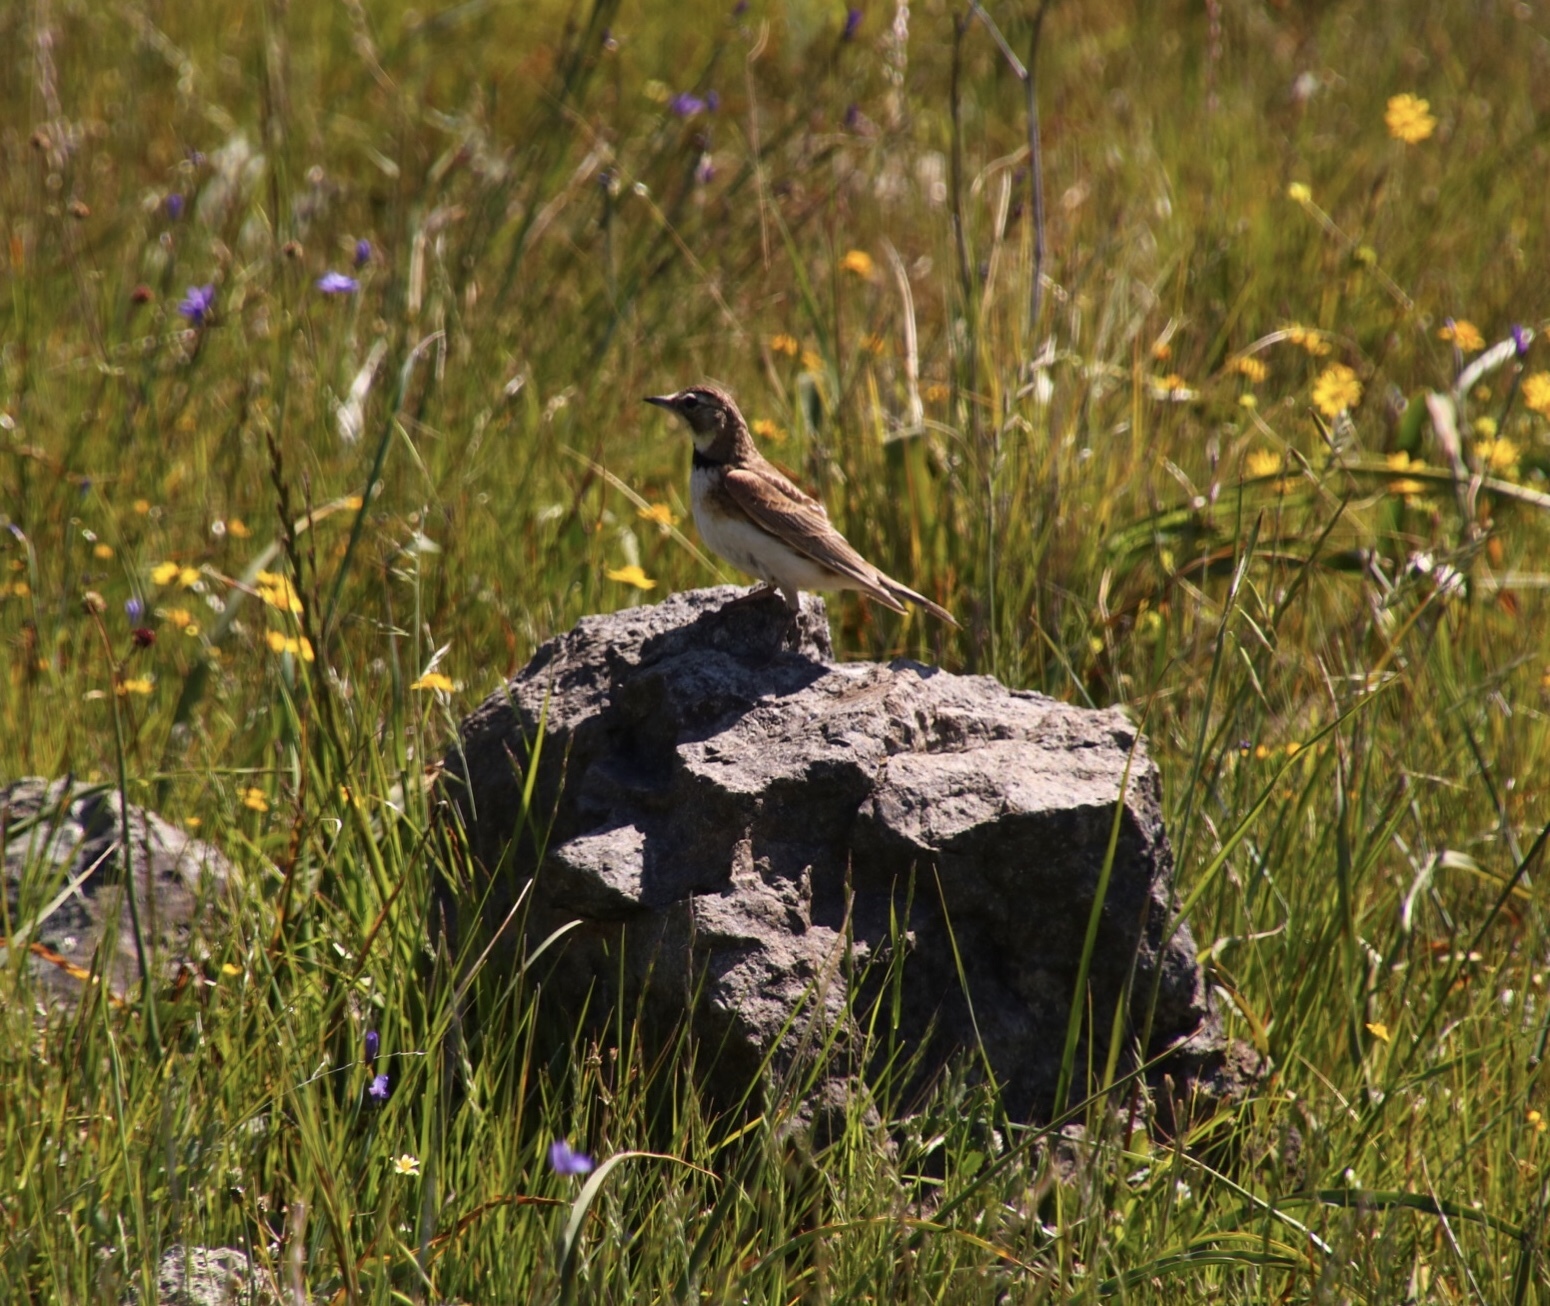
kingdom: Animalia
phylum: Chordata
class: Aves
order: Passeriformes
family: Alaudidae
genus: Eremophila
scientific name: Eremophila alpestris
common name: Horned lark
